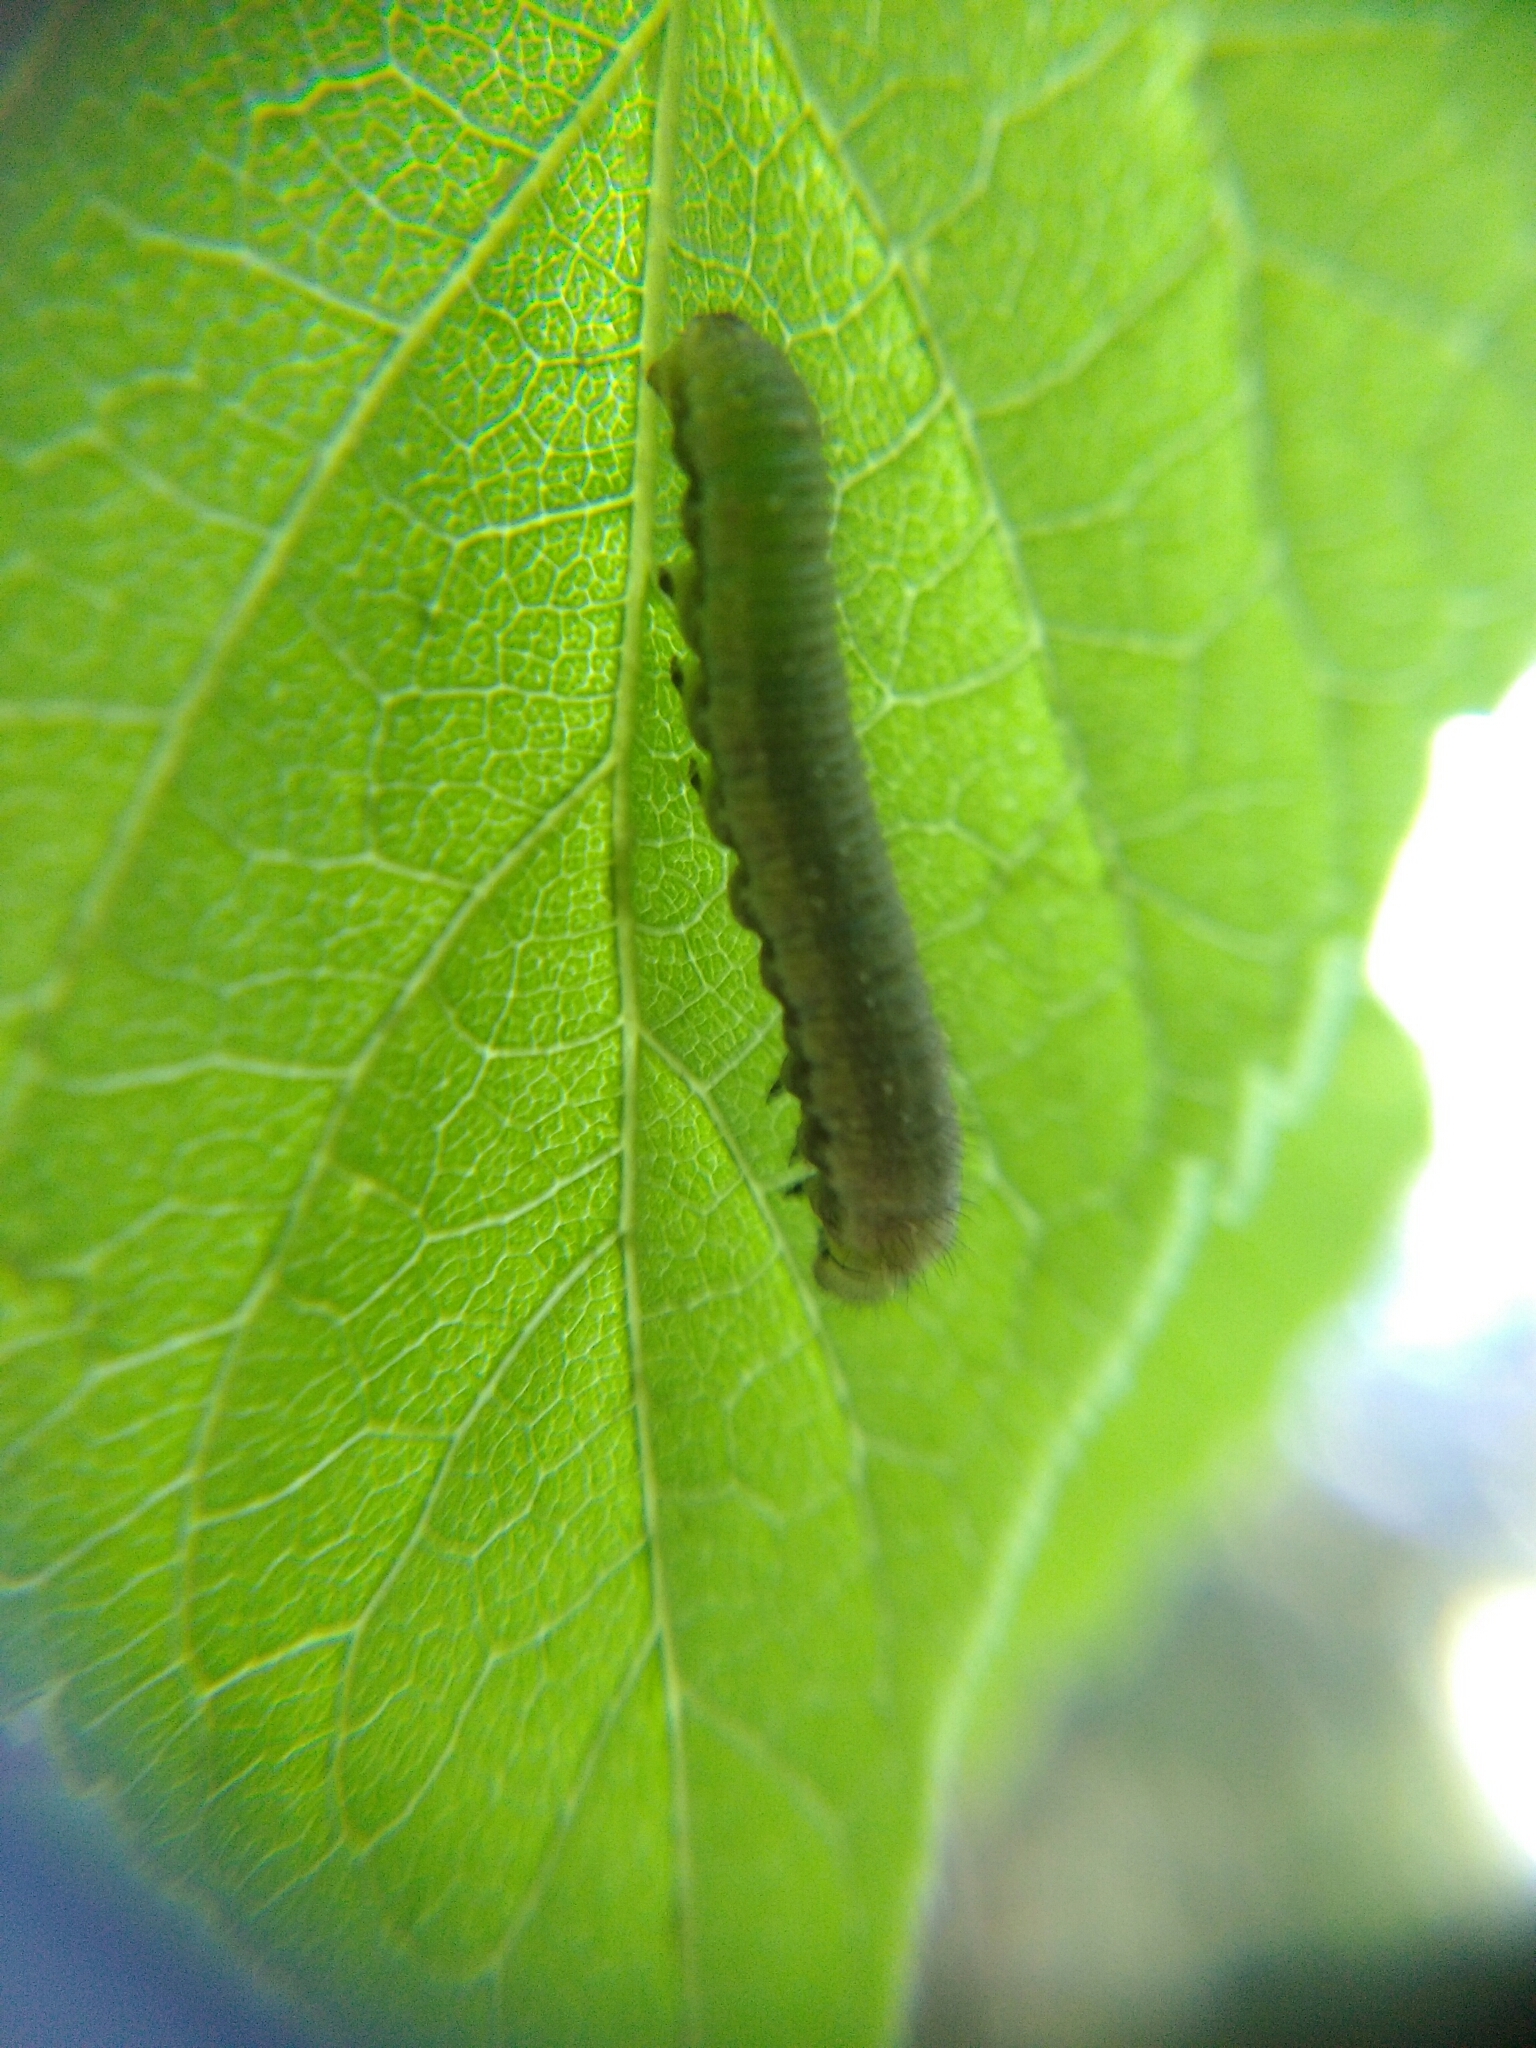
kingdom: Animalia
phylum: Arthropoda
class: Insecta
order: Lepidoptera
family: Nymphalidae
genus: Libythea
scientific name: Libythea celtis
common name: Nettle-tree butterfly
